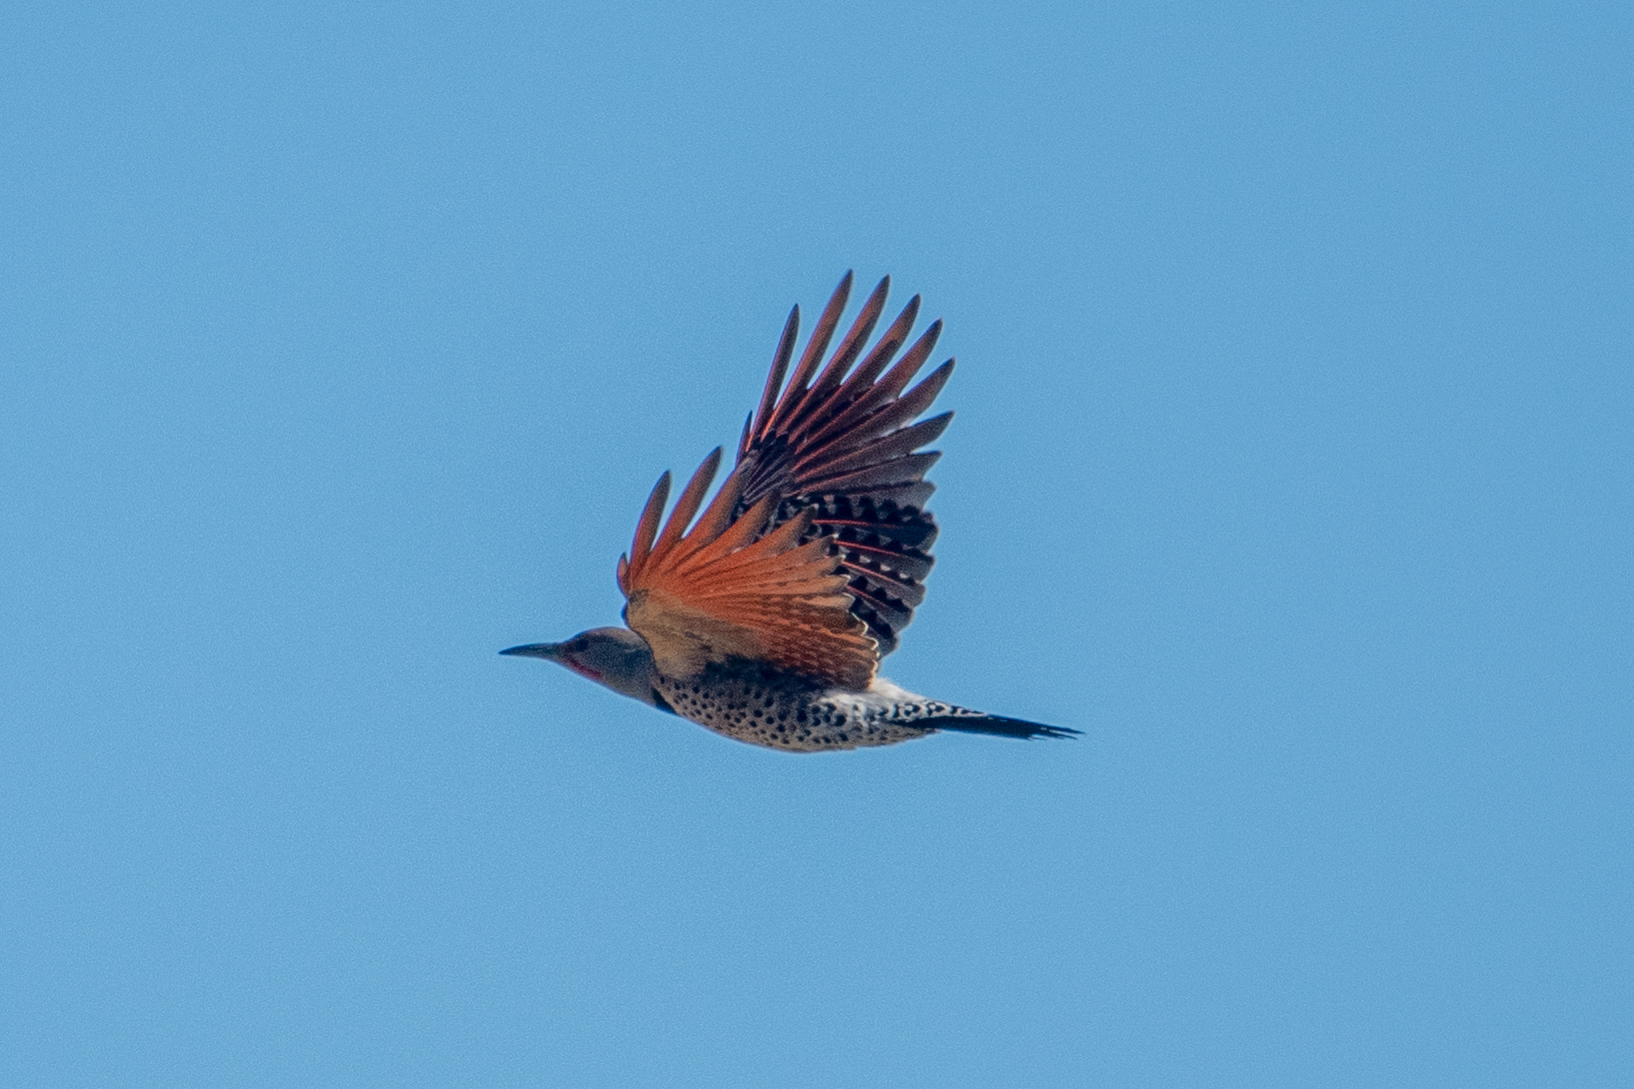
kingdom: Animalia
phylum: Chordata
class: Aves
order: Piciformes
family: Picidae
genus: Colaptes
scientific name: Colaptes auratus
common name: Northern flicker
